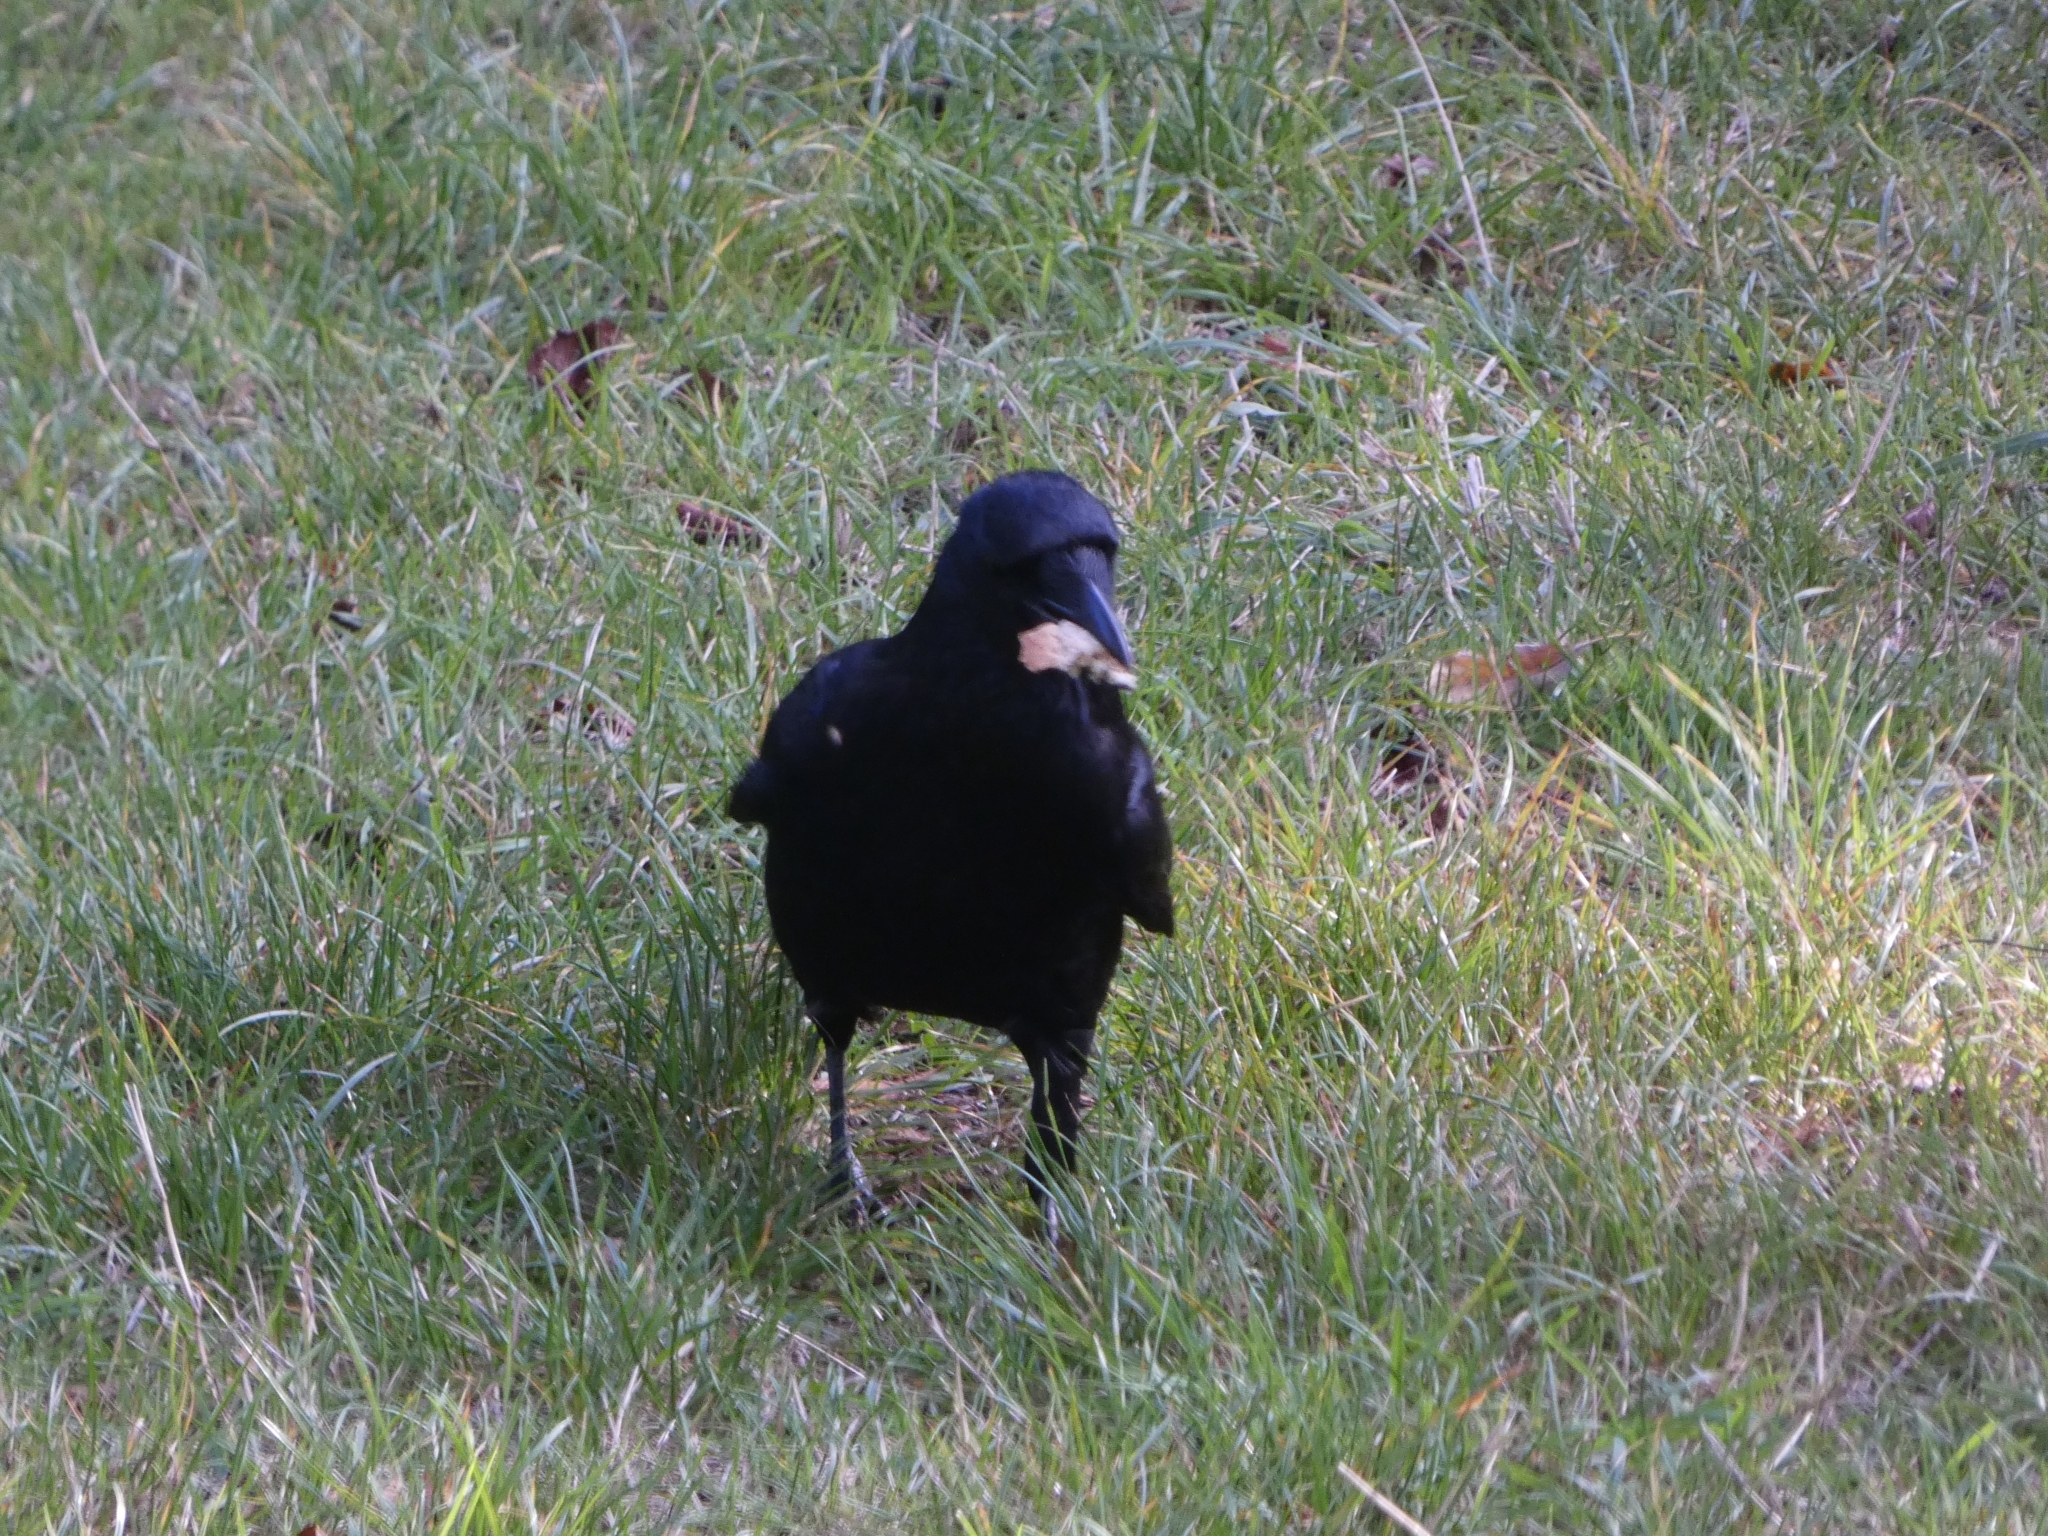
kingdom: Animalia
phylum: Chordata
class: Aves
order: Passeriformes
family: Corvidae
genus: Corvus
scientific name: Corvus corone
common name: Carrion crow
